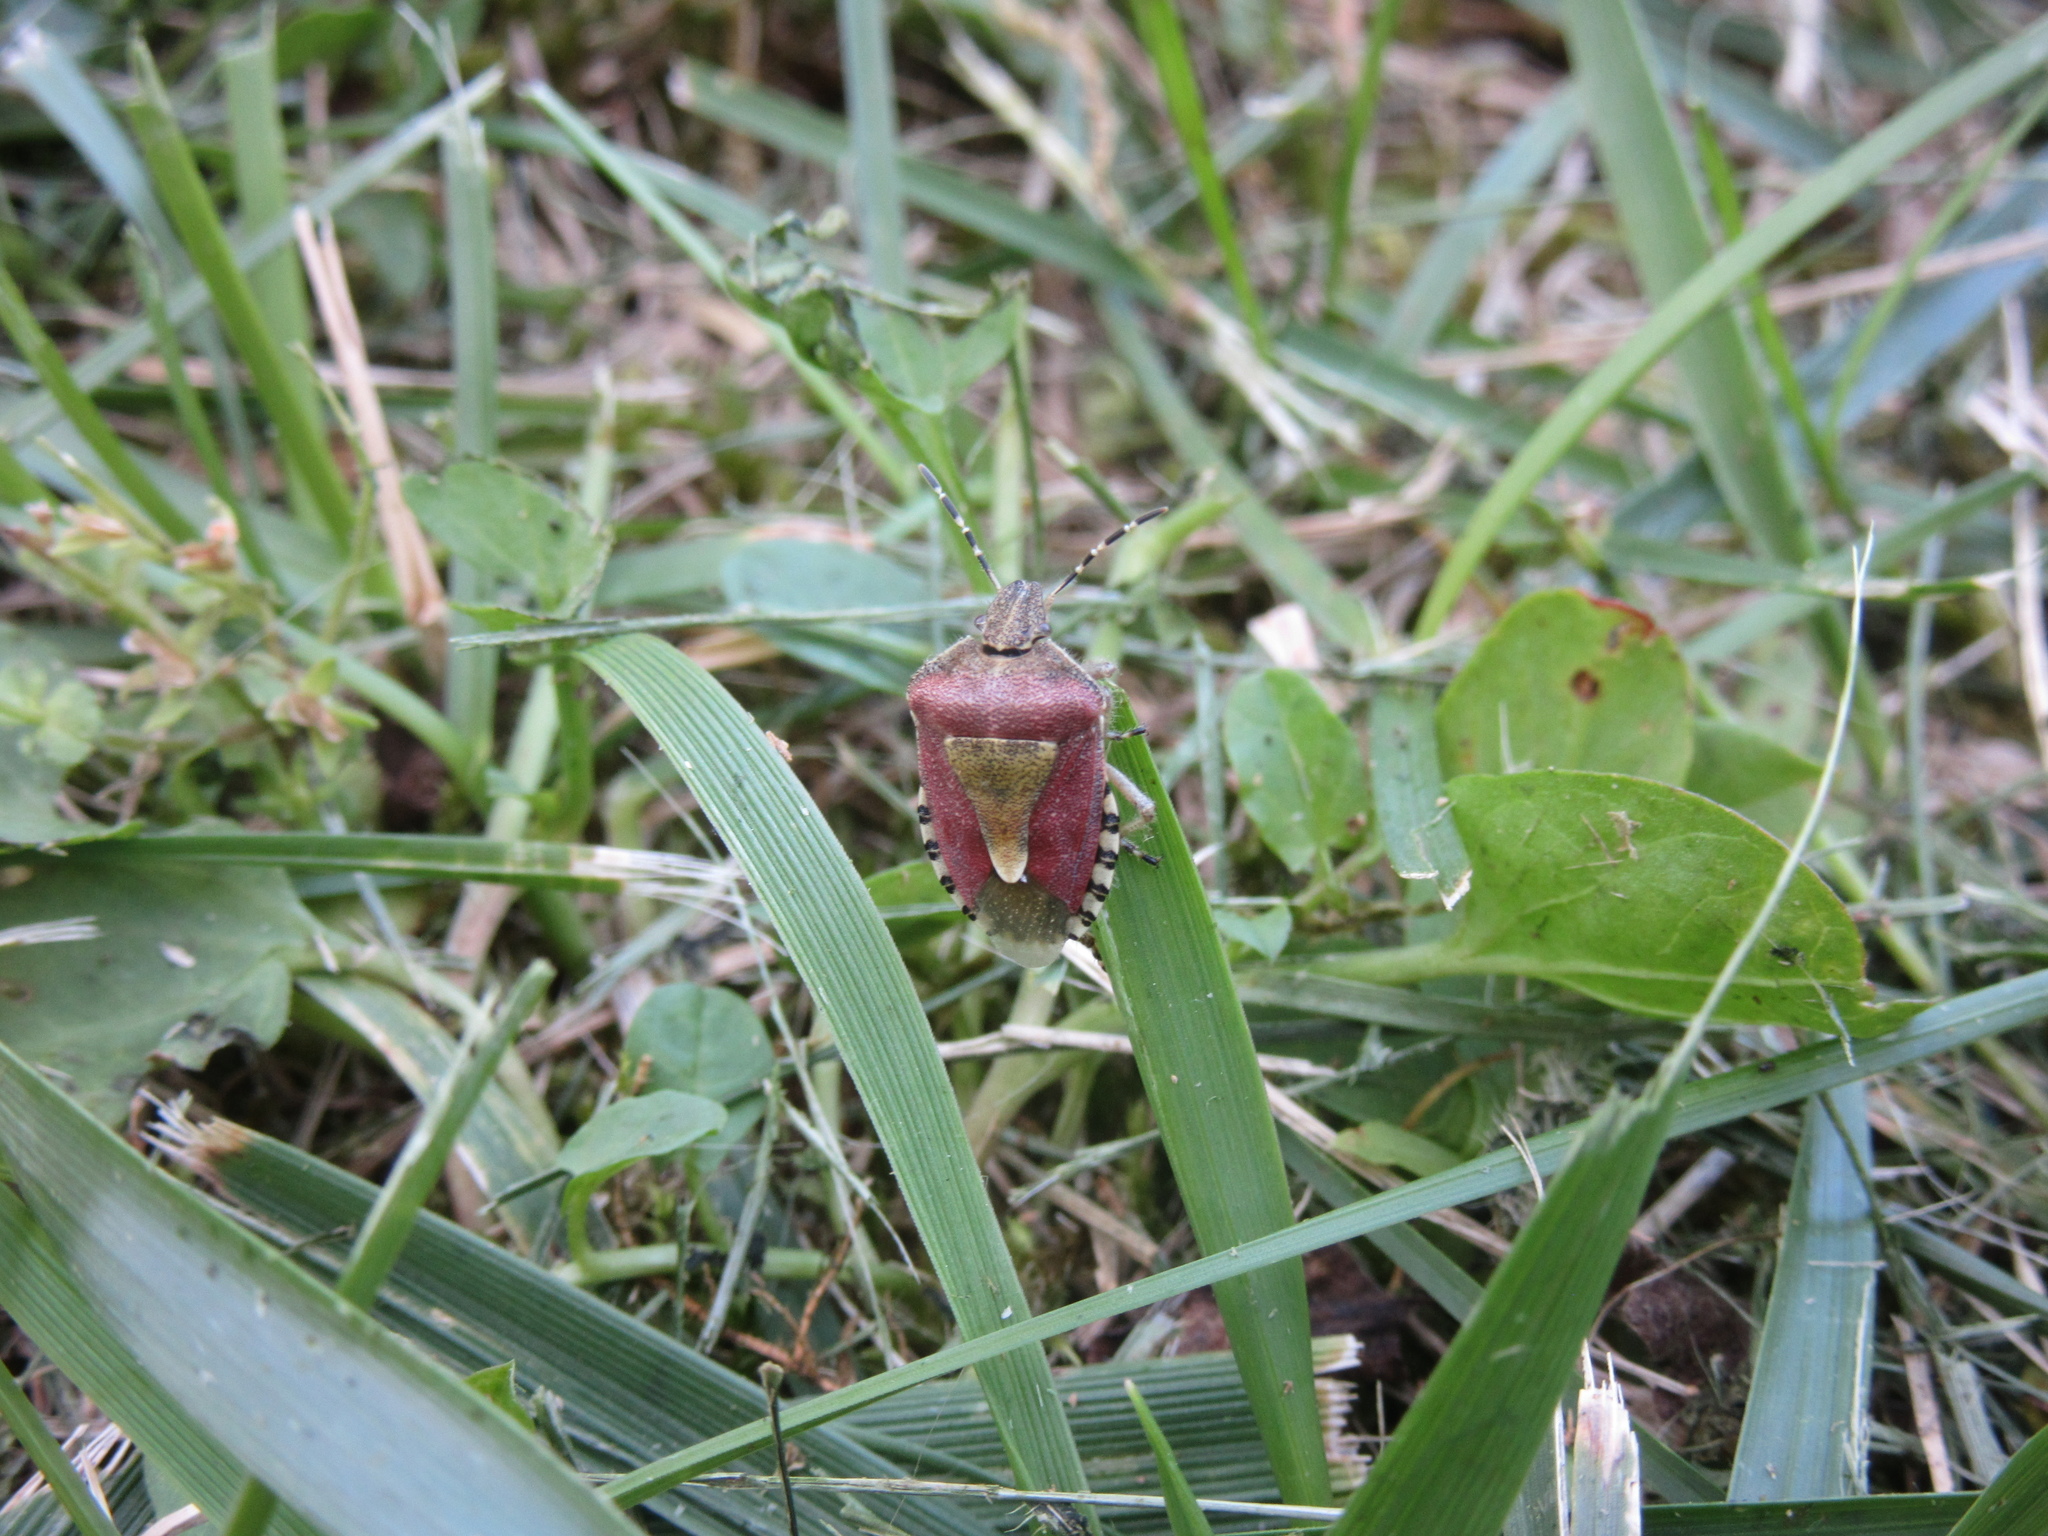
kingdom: Animalia
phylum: Arthropoda
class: Insecta
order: Hemiptera
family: Pentatomidae
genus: Dolycoris
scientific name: Dolycoris baccarum
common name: Sloe bug
